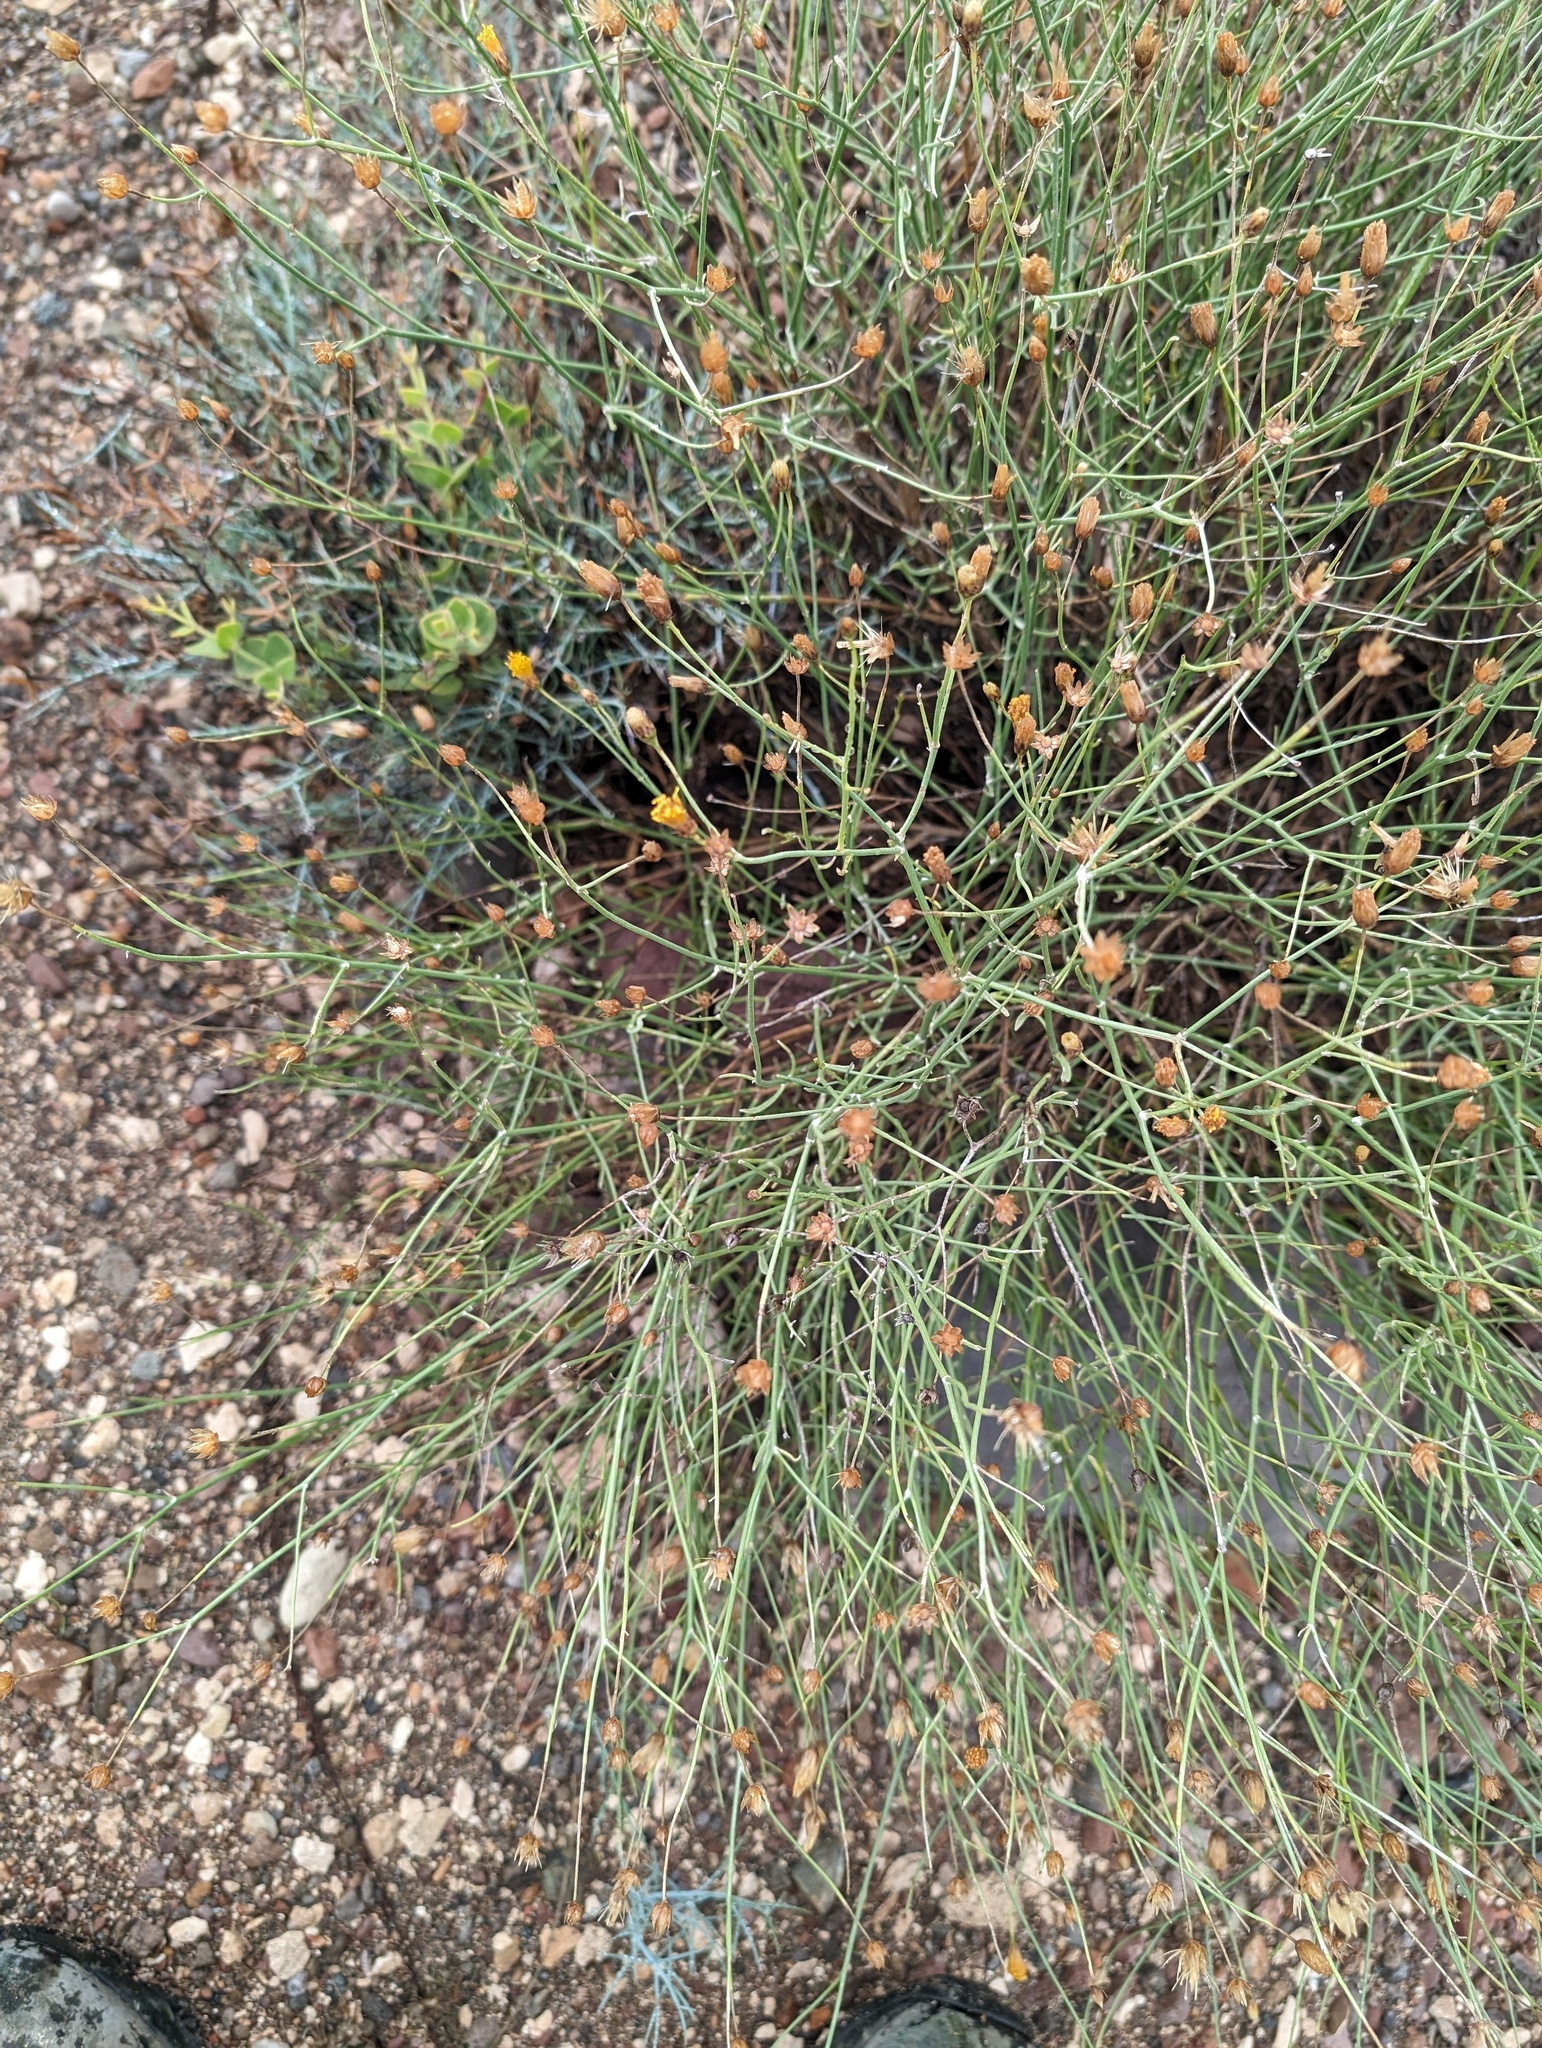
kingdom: Plantae
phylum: Tracheophyta
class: Magnoliopsida
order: Asterales
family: Asteraceae
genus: Bebbia
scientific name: Bebbia juncea
